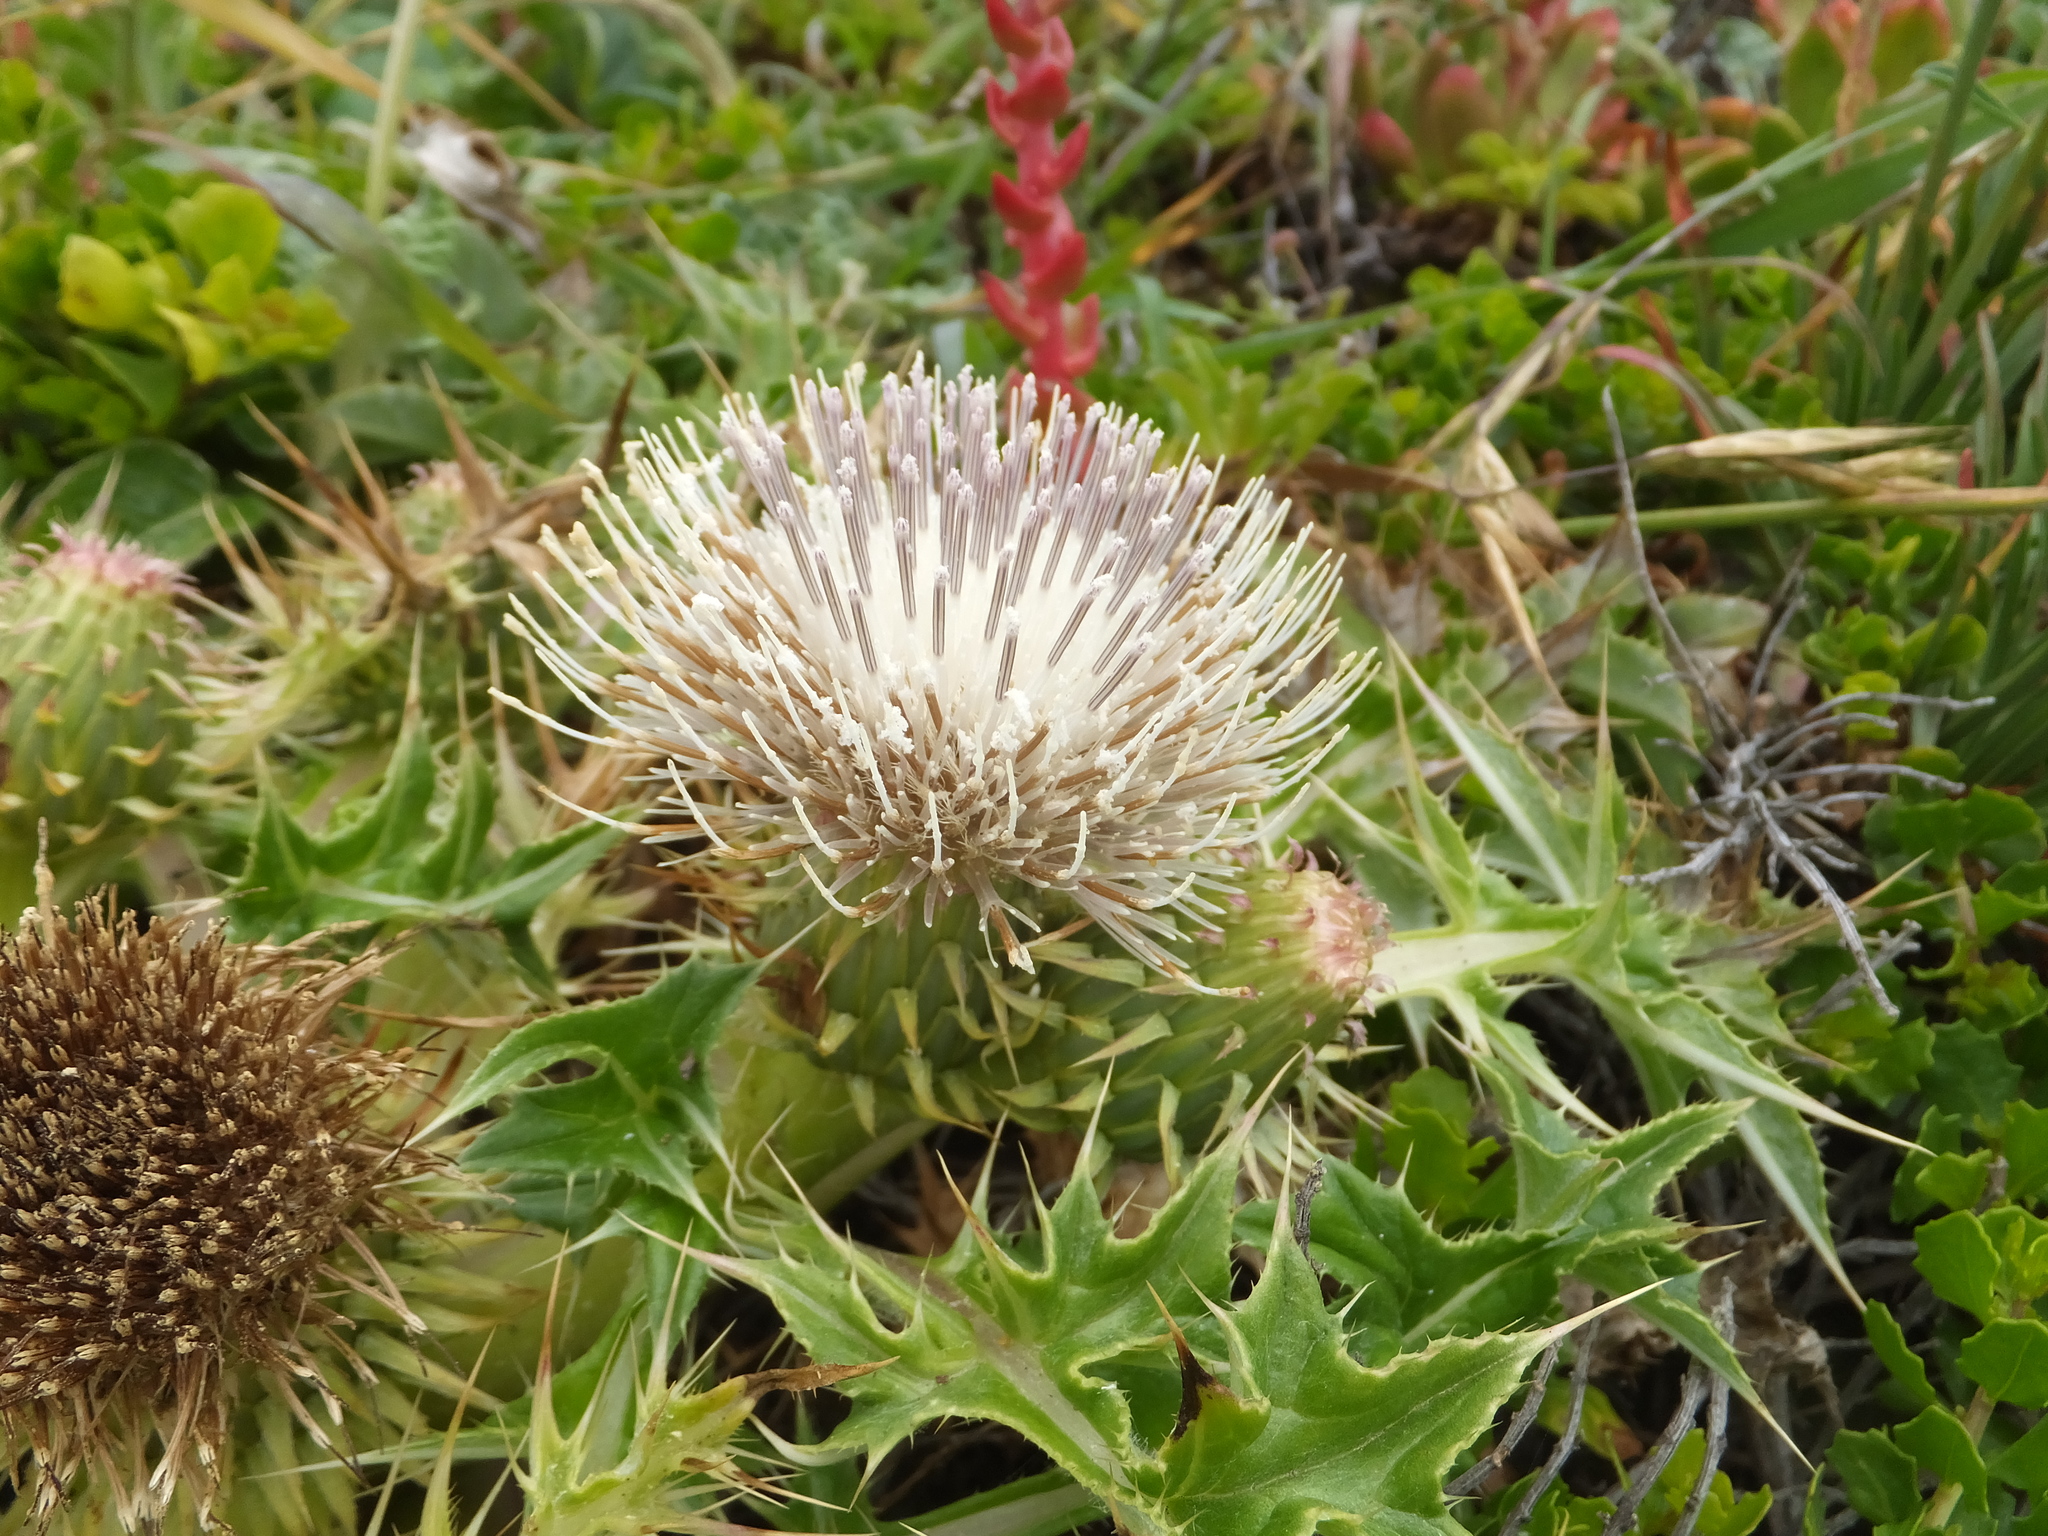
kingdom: Plantae
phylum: Tracheophyta
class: Magnoliopsida
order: Asterales
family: Asteraceae
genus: Cirsium
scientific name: Cirsium quercetorum
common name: Alameda county thistle
